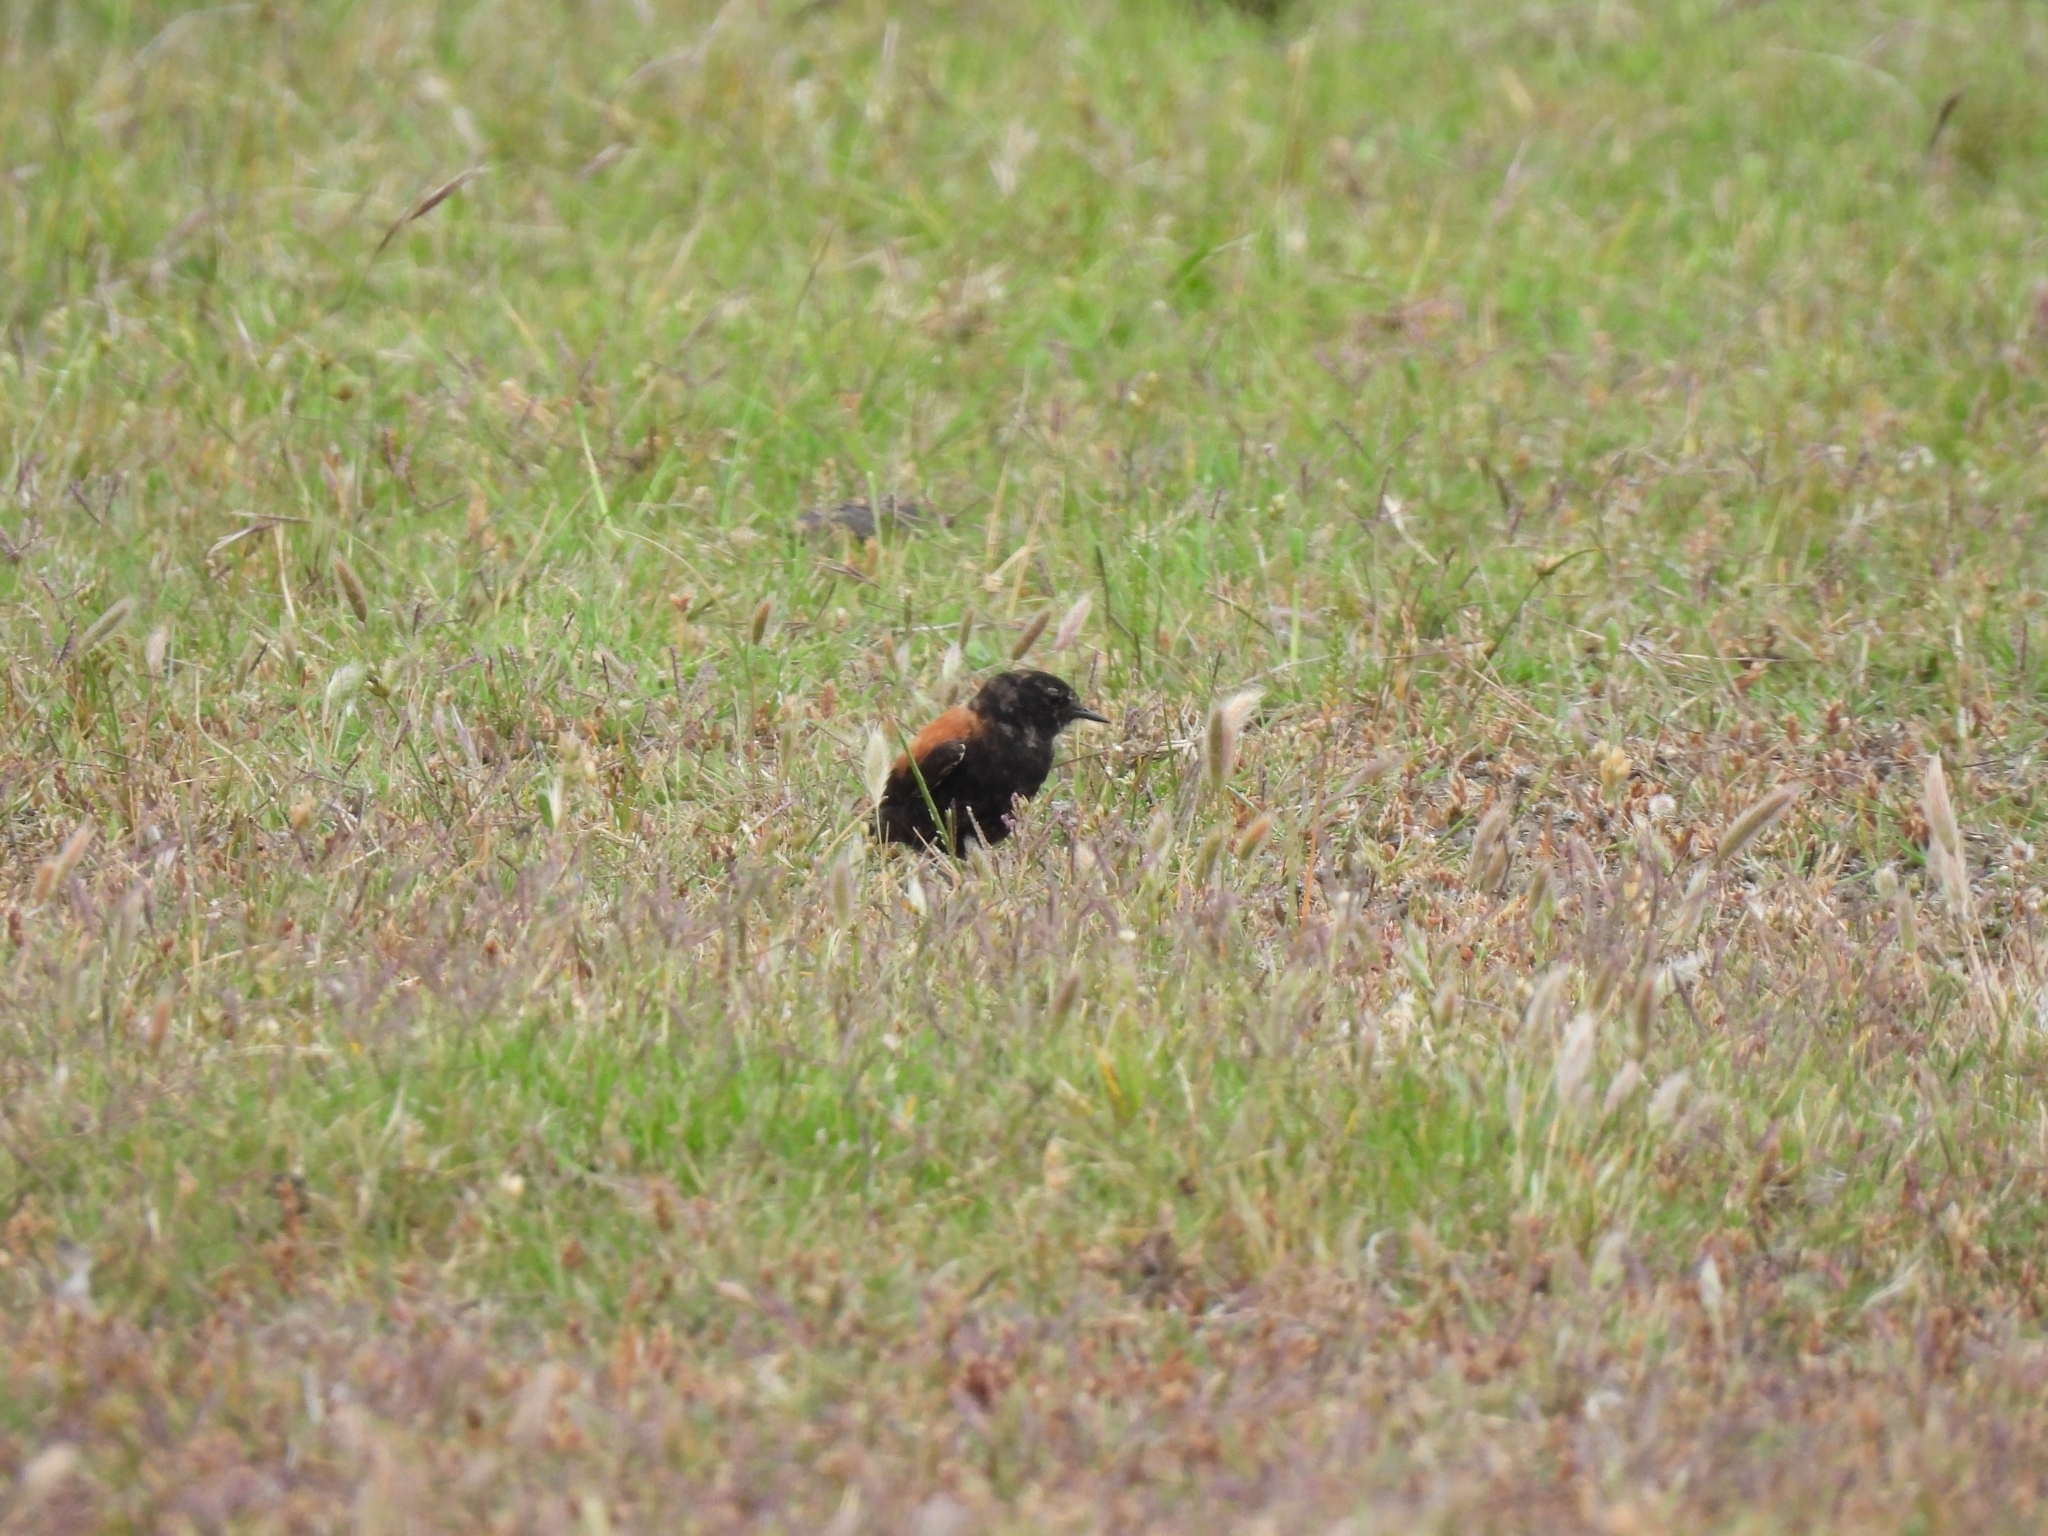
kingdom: Animalia
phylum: Chordata
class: Aves
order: Passeriformes
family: Tyrannidae
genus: Lessonia
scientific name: Lessonia rufa
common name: Austral negrito
